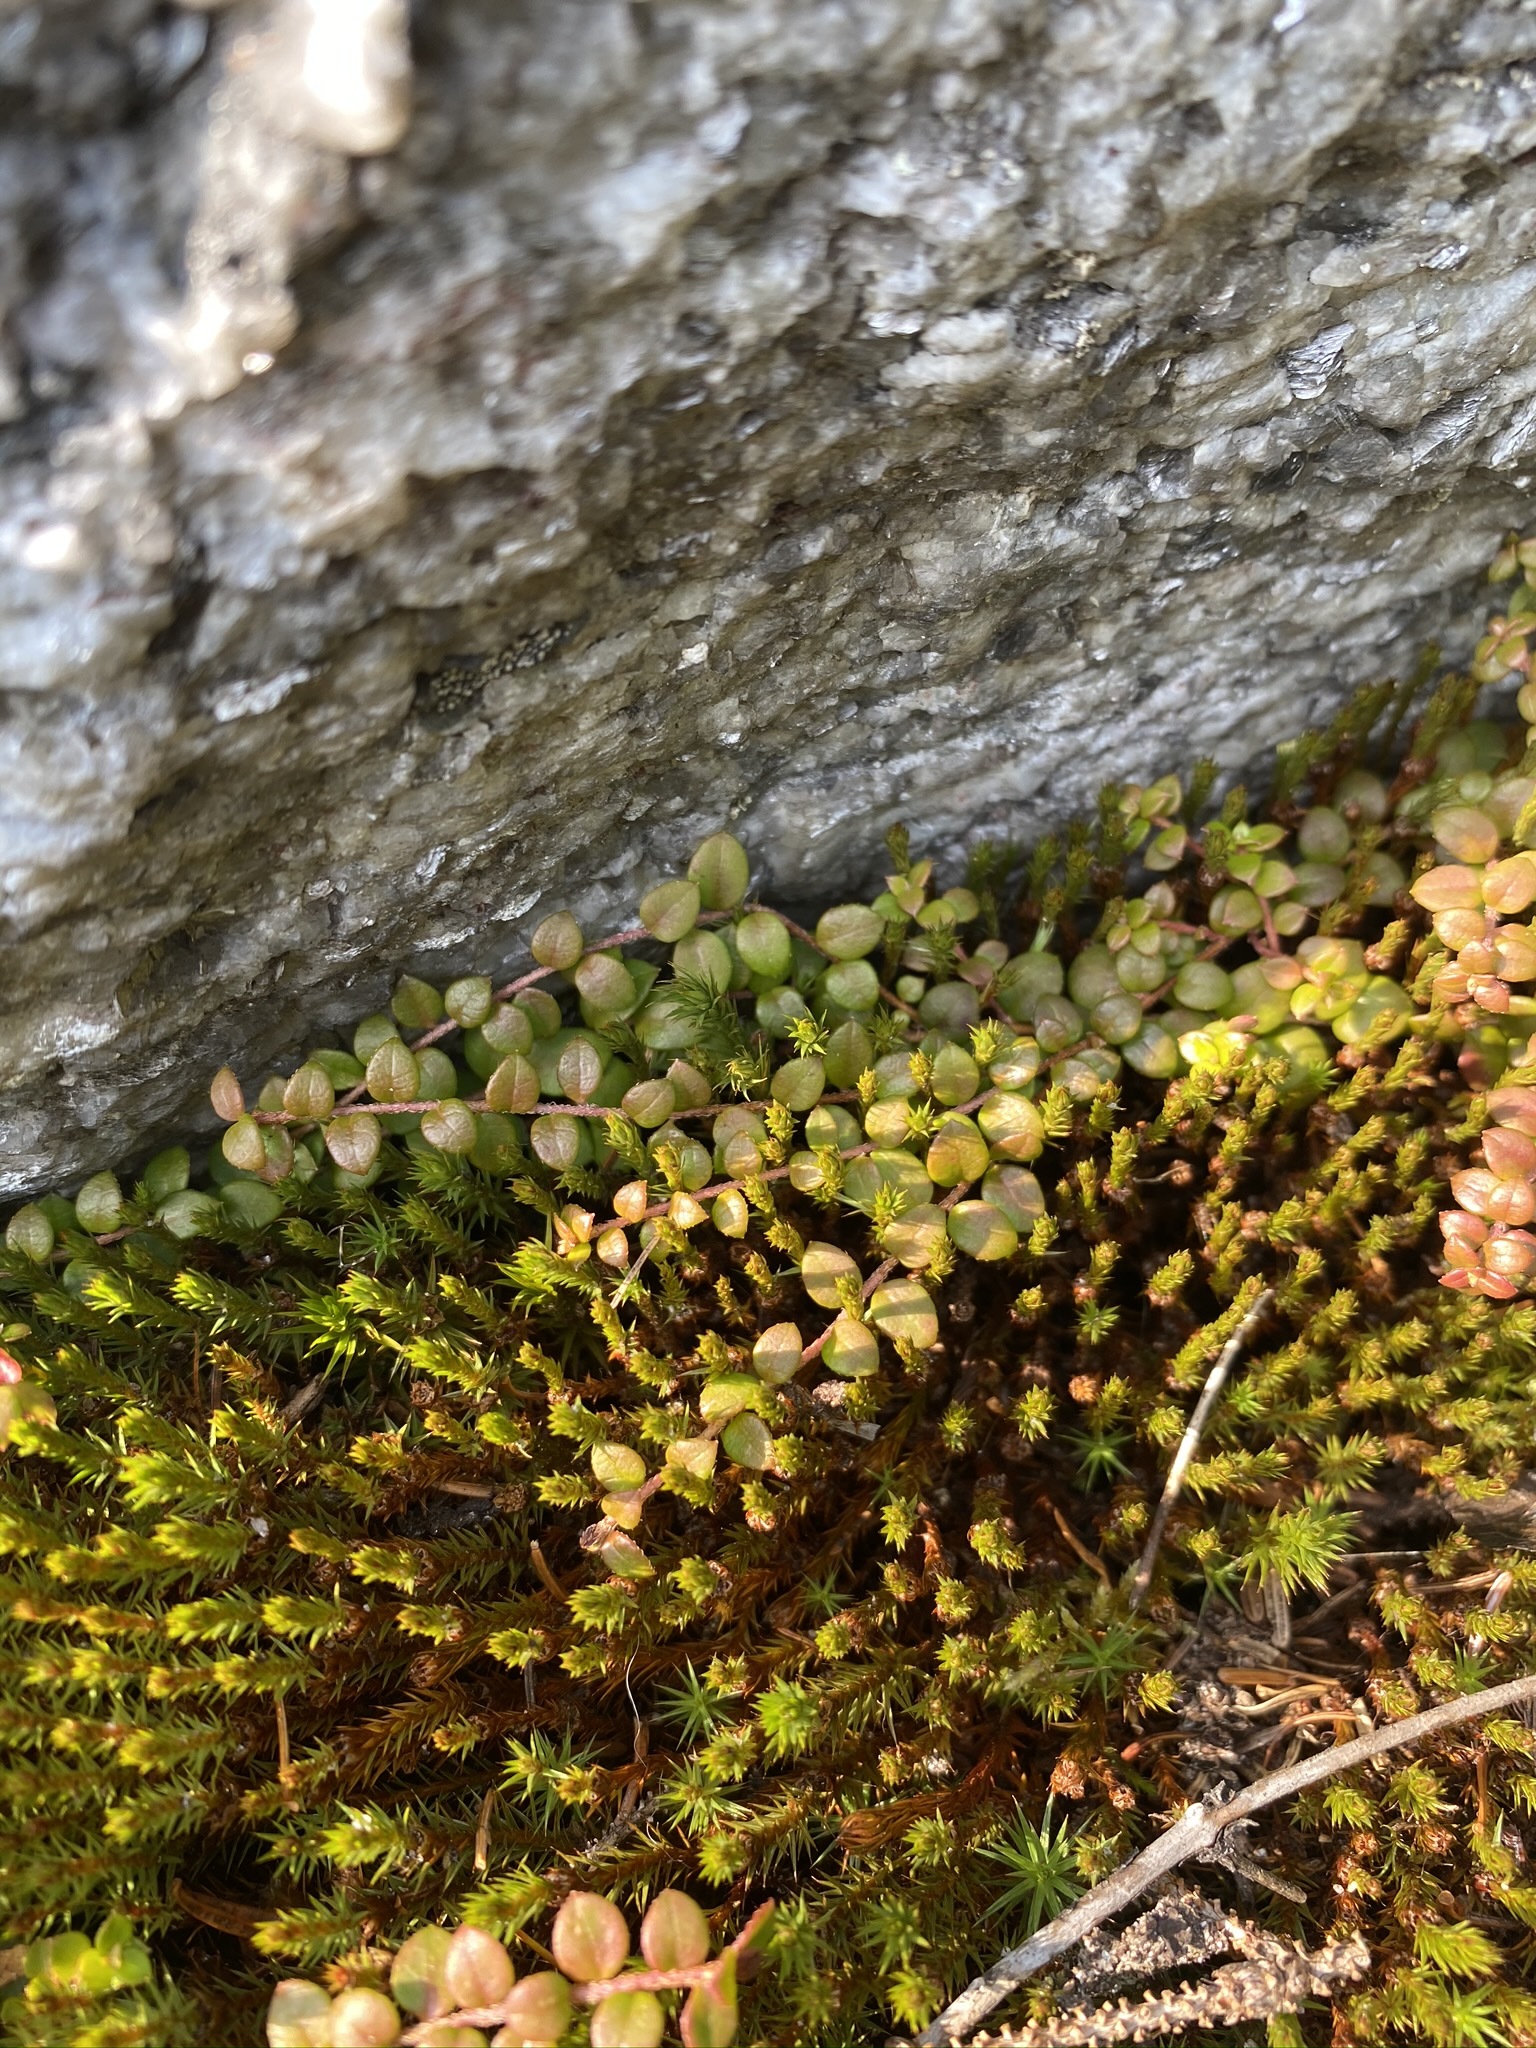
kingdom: Plantae
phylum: Tracheophyta
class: Magnoliopsida
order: Ericales
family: Ericaceae
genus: Gaultheria
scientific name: Gaultheria hispidula
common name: Cancer wintergreen
